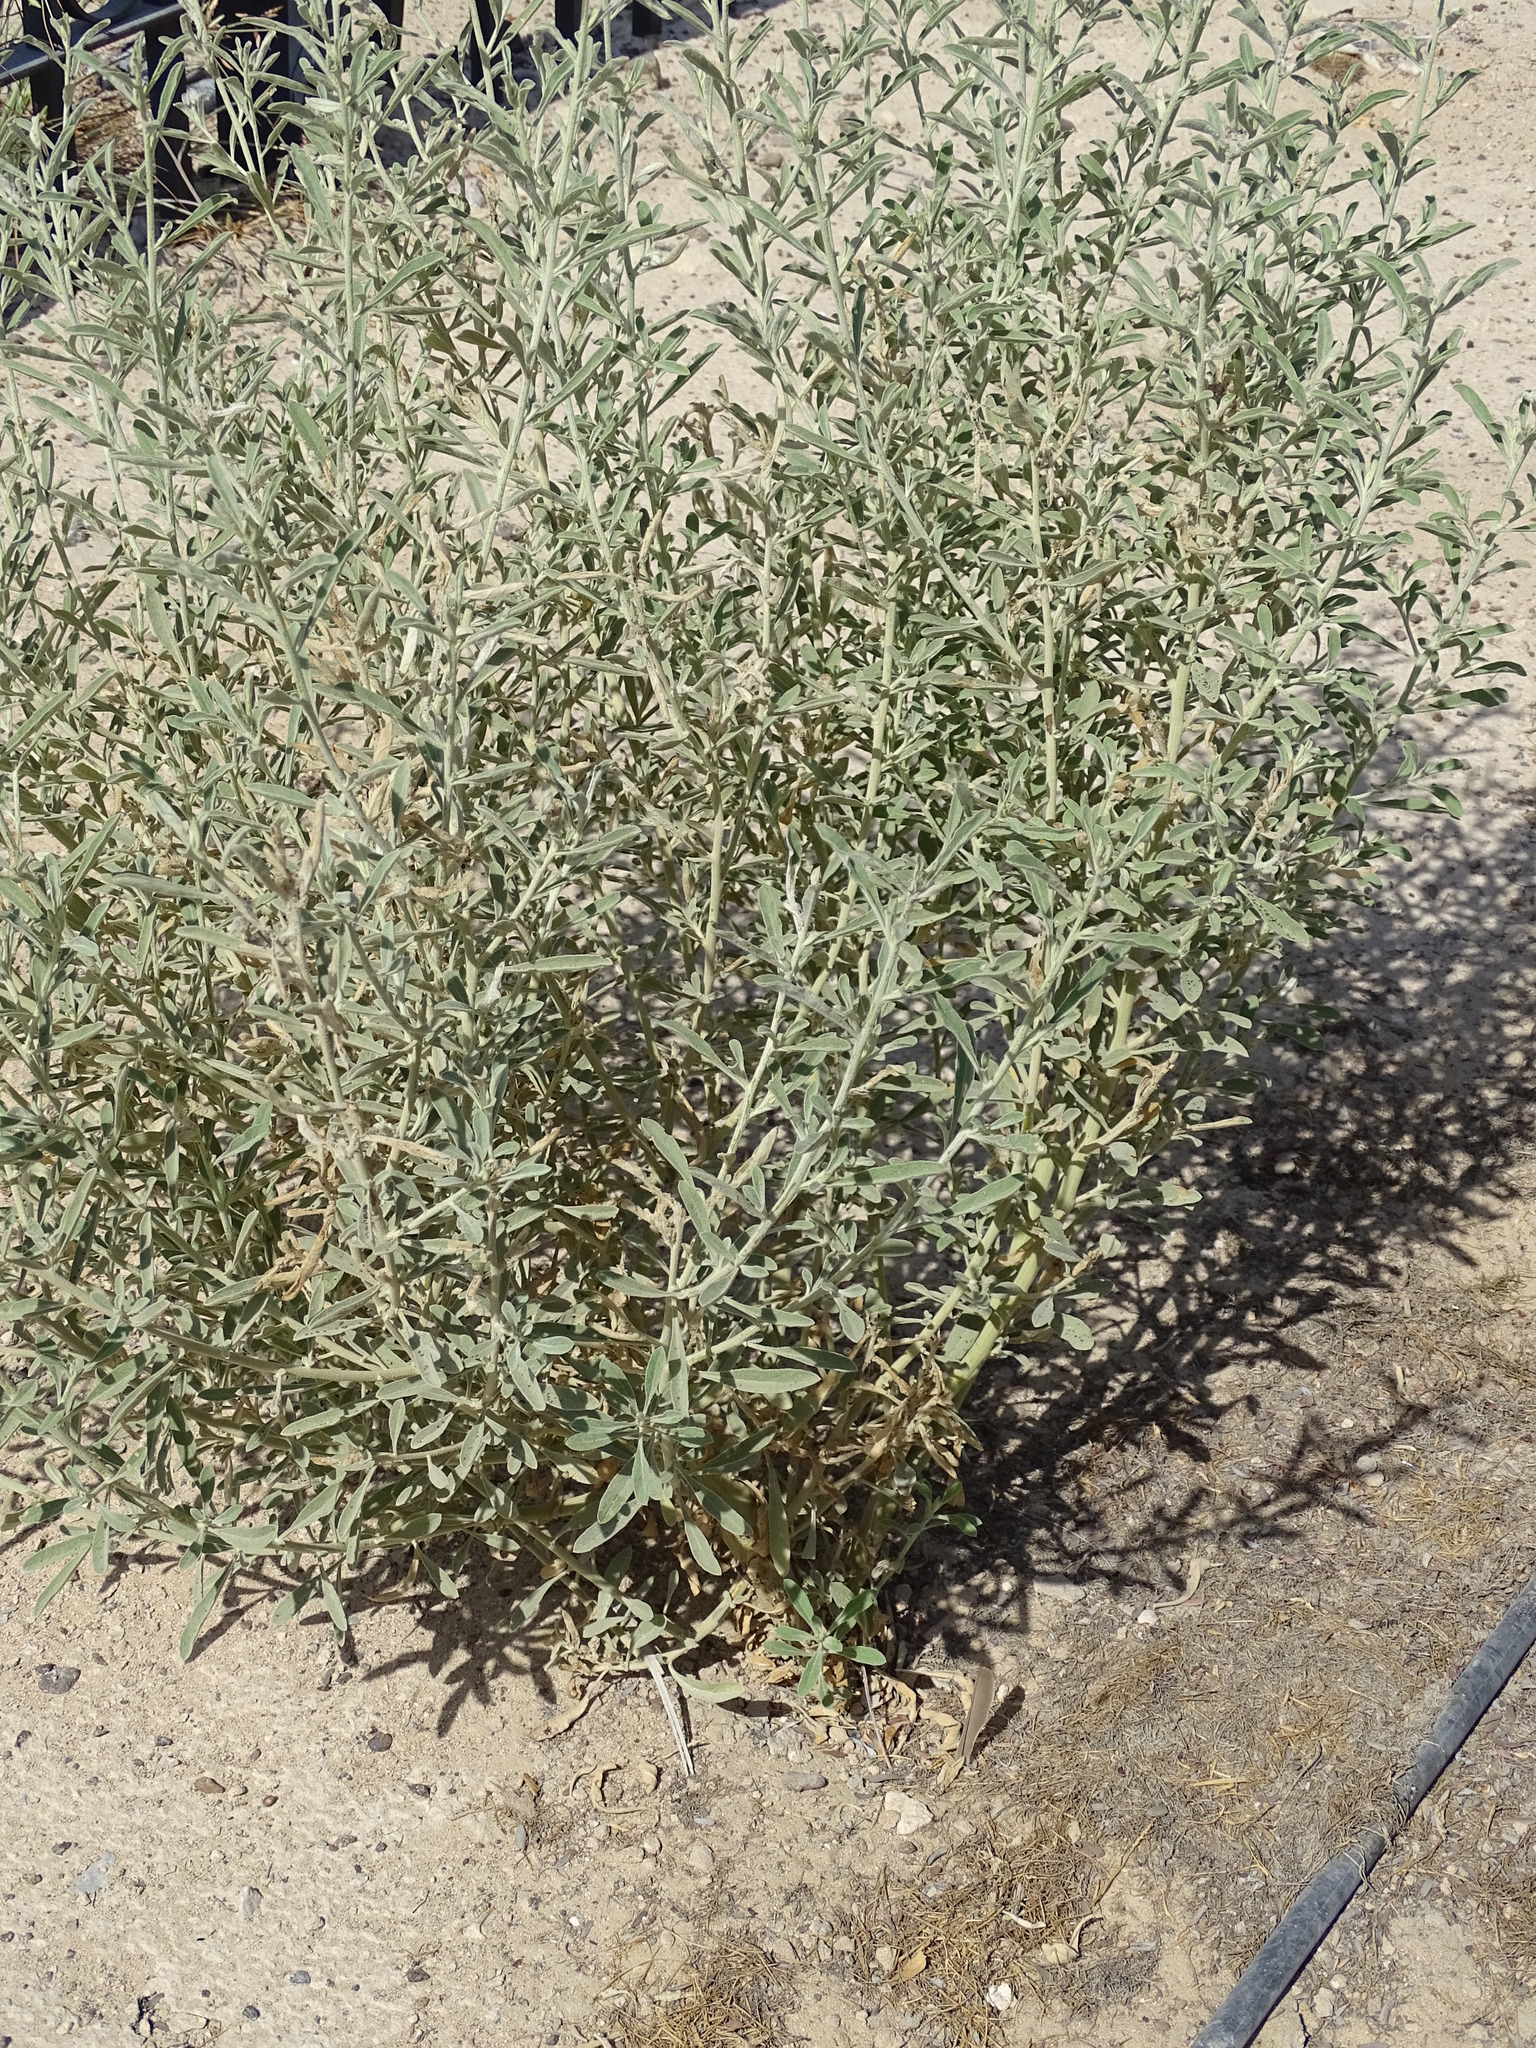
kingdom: Plantae
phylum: Tracheophyta
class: Magnoliopsida
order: Caryophyllales
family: Amaranthaceae
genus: Aerva
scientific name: Aerva javanica
